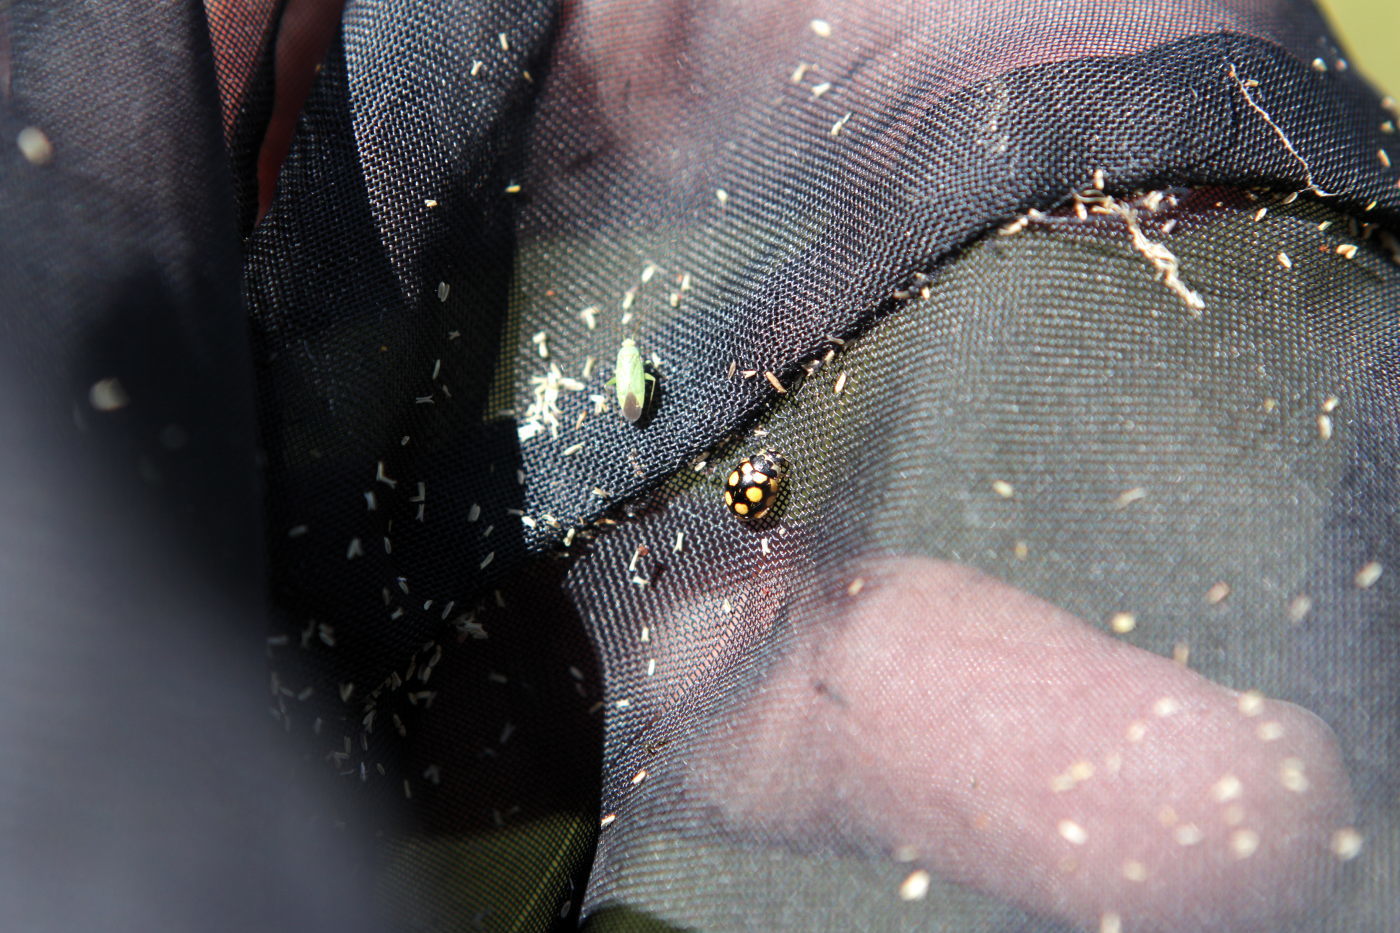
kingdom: Animalia
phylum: Arthropoda
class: Insecta
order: Coleoptera
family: Coccinellidae
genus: Coccinula
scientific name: Coccinula quatuordecimpustulata
